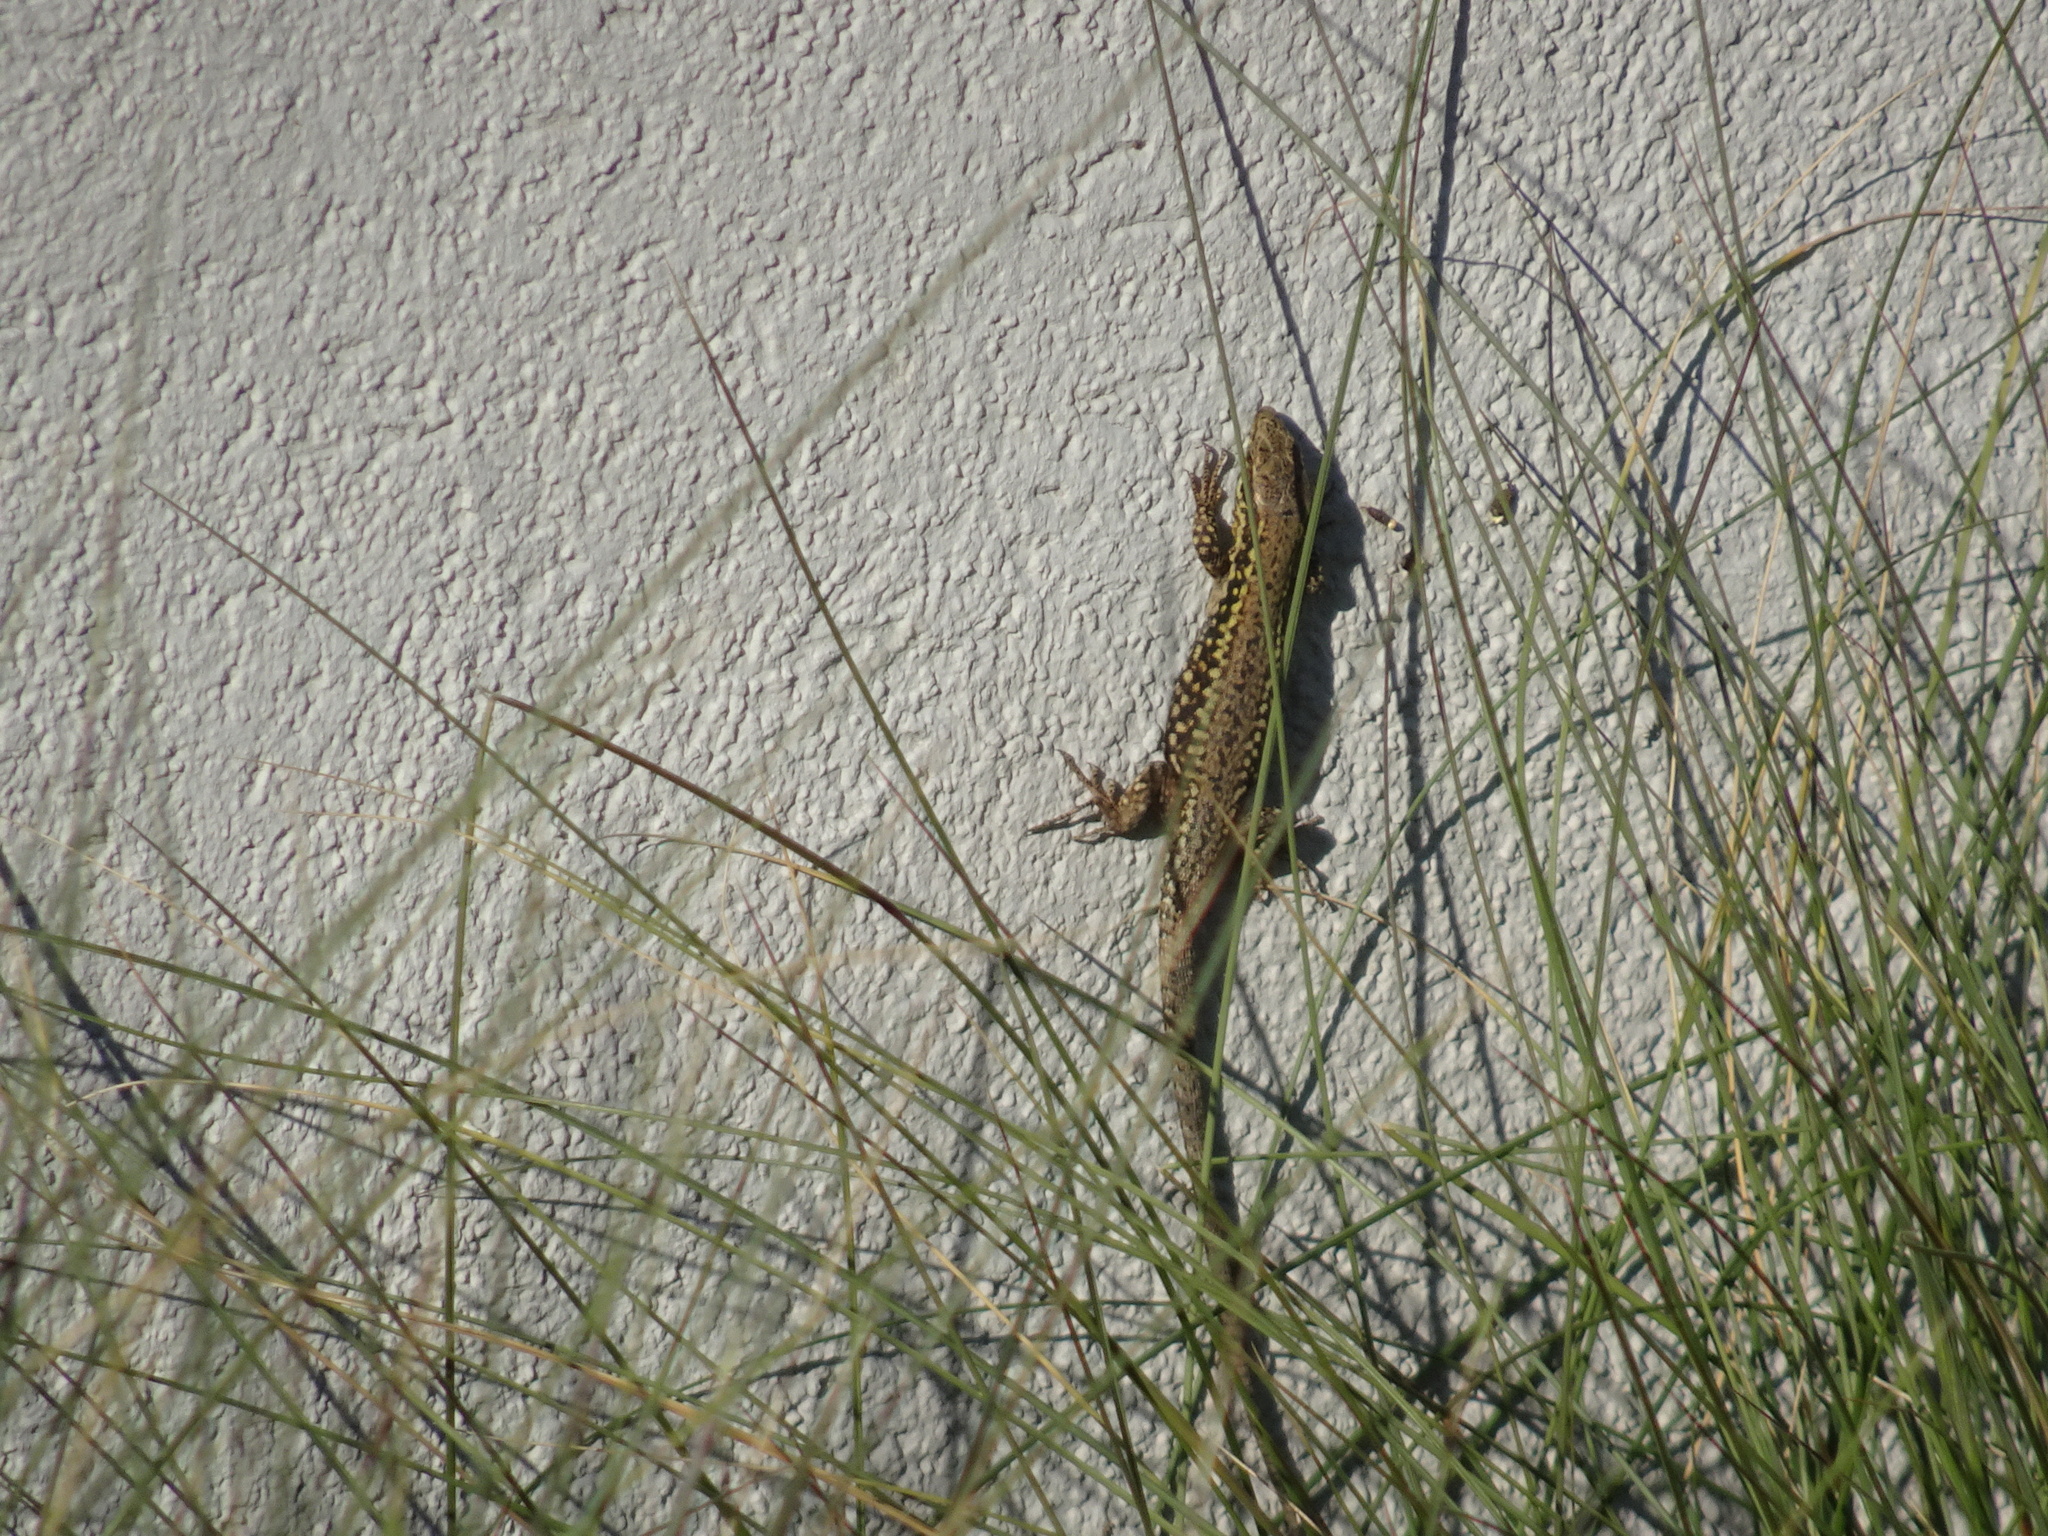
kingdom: Animalia
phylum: Chordata
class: Squamata
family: Lacertidae
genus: Podarcis
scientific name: Podarcis muralis
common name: Common wall lizard
